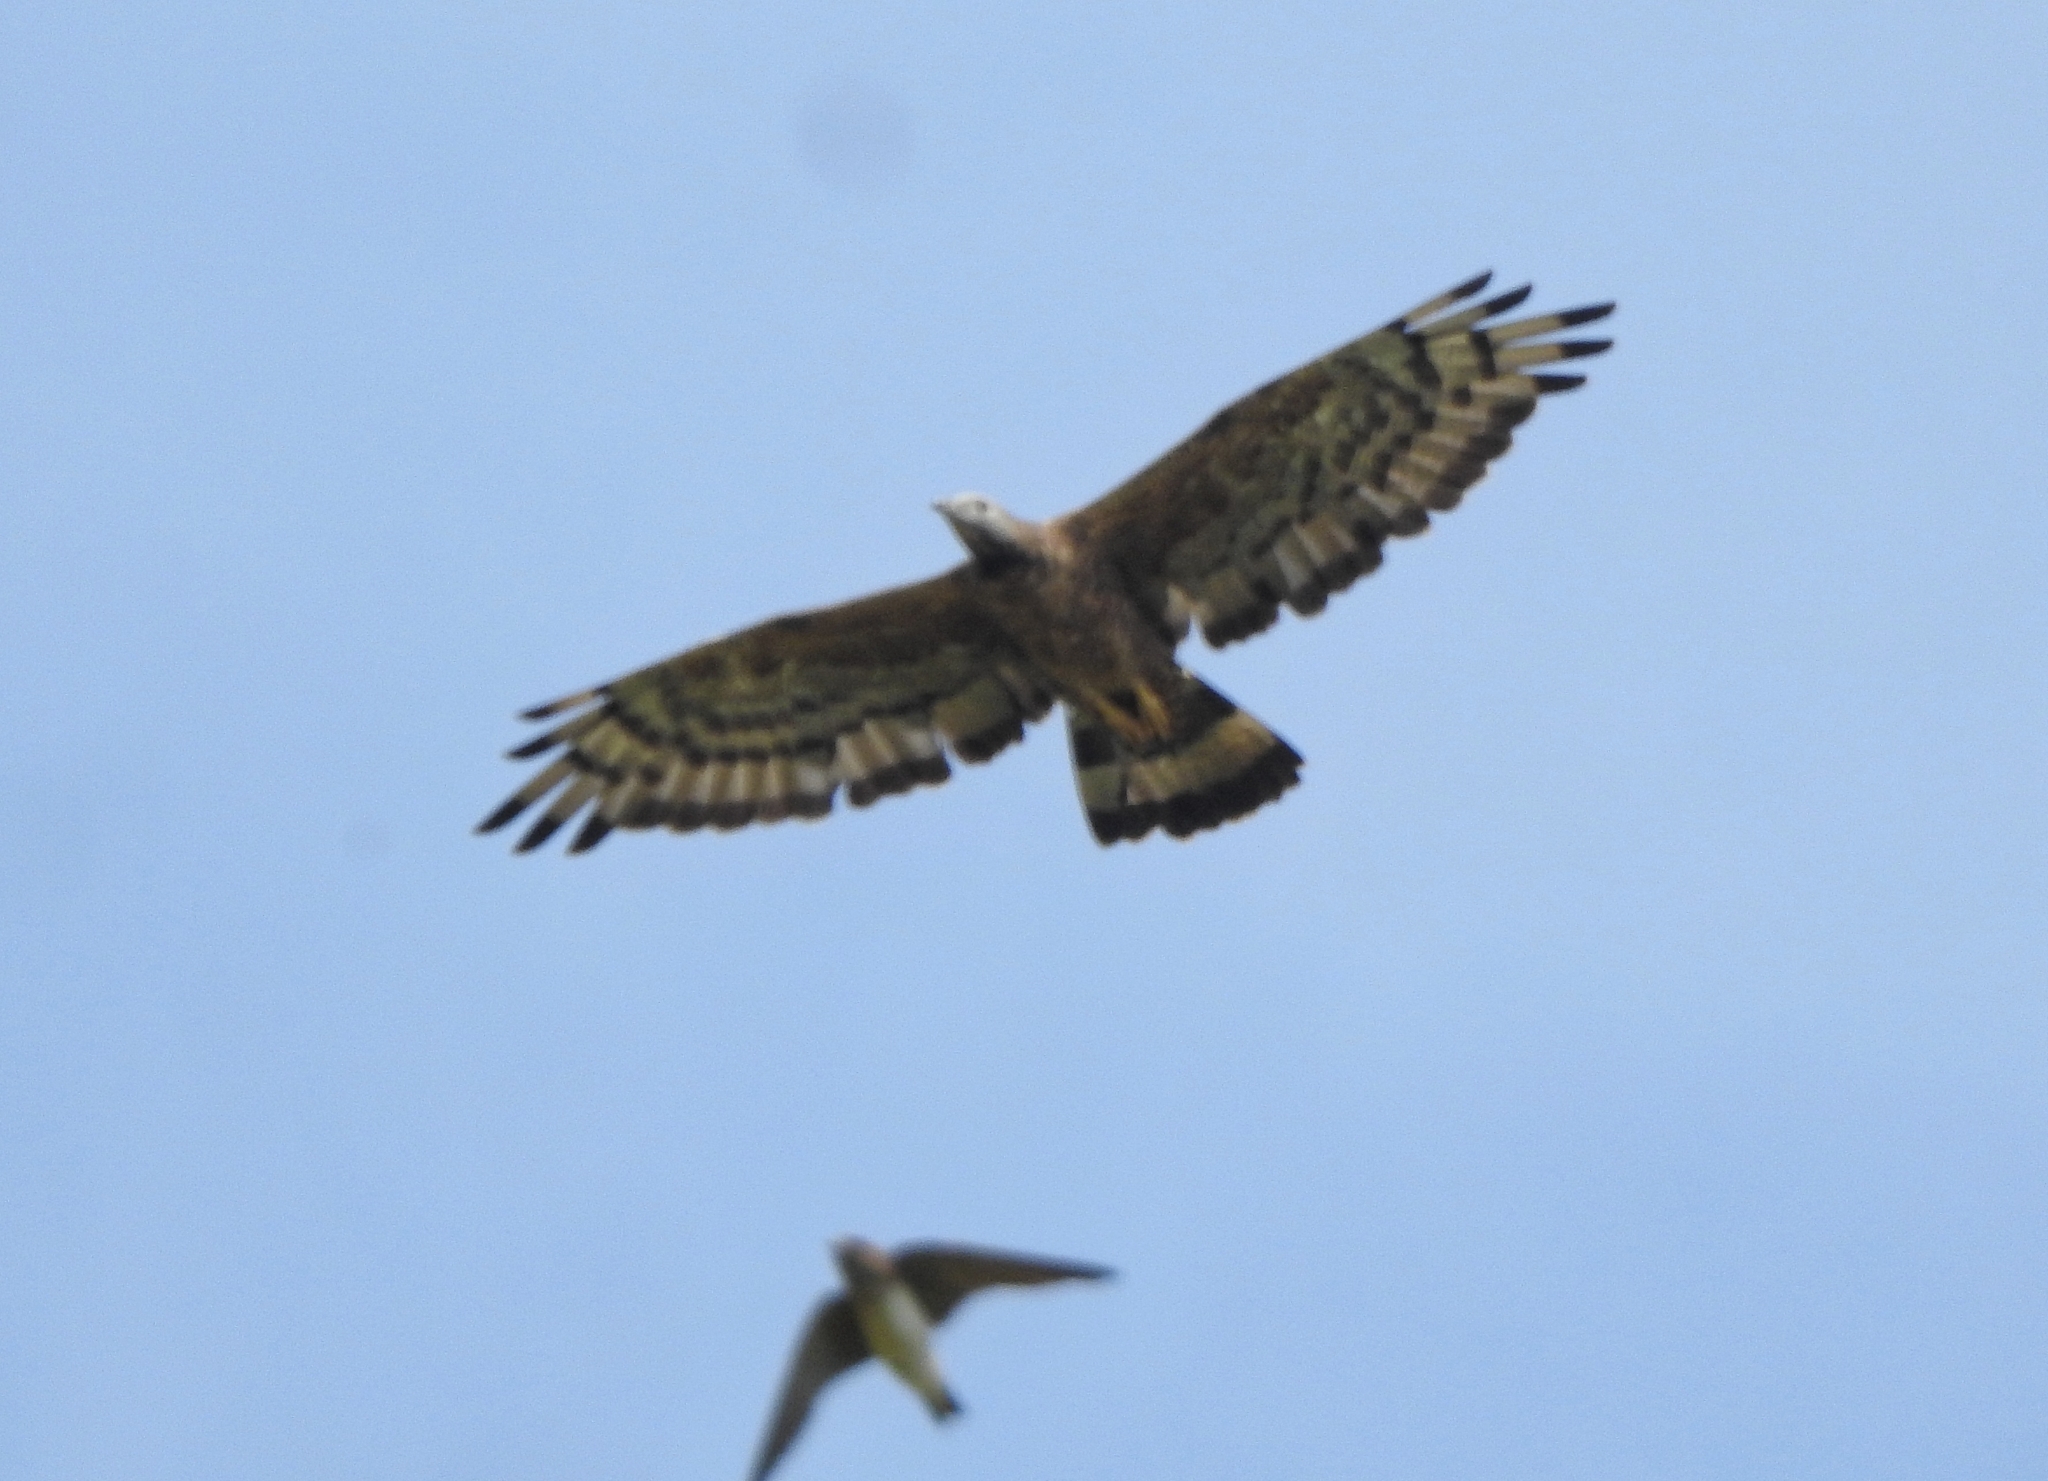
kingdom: Animalia
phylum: Chordata
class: Aves
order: Passeriformes
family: Hirundinidae
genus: Petrochelidon
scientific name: Petrochelidon fluvicola
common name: Streak-throated swallow
